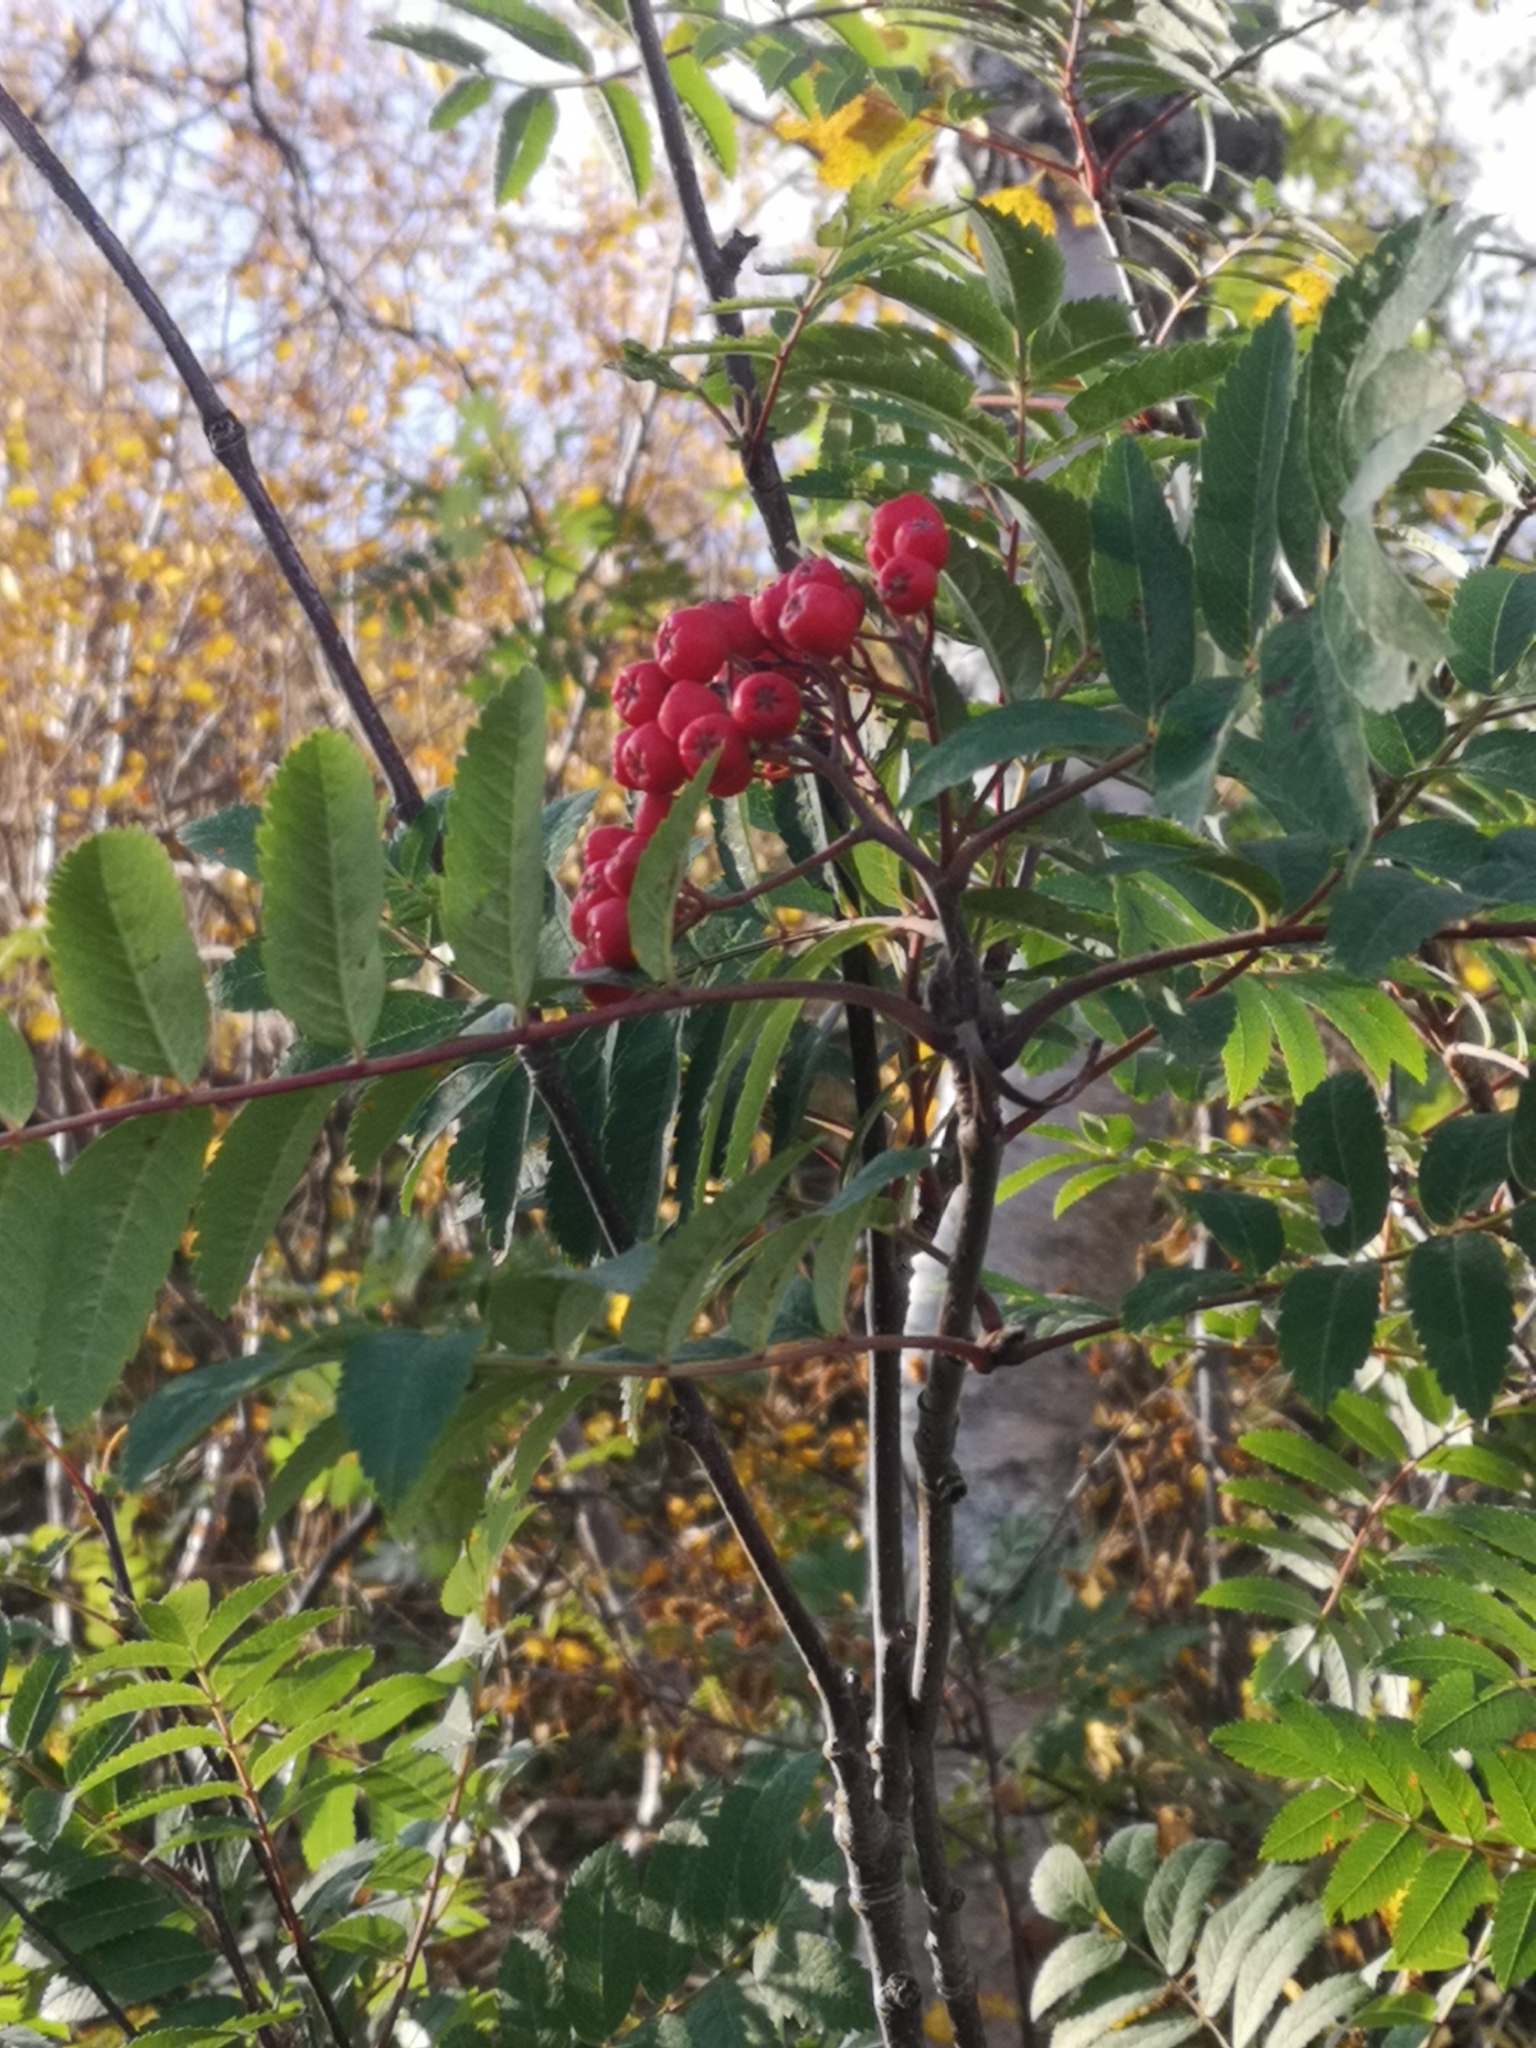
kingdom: Plantae
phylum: Tracheophyta
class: Magnoliopsida
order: Rosales
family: Rosaceae
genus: Sorbus
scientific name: Sorbus aucuparia
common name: Rowan
